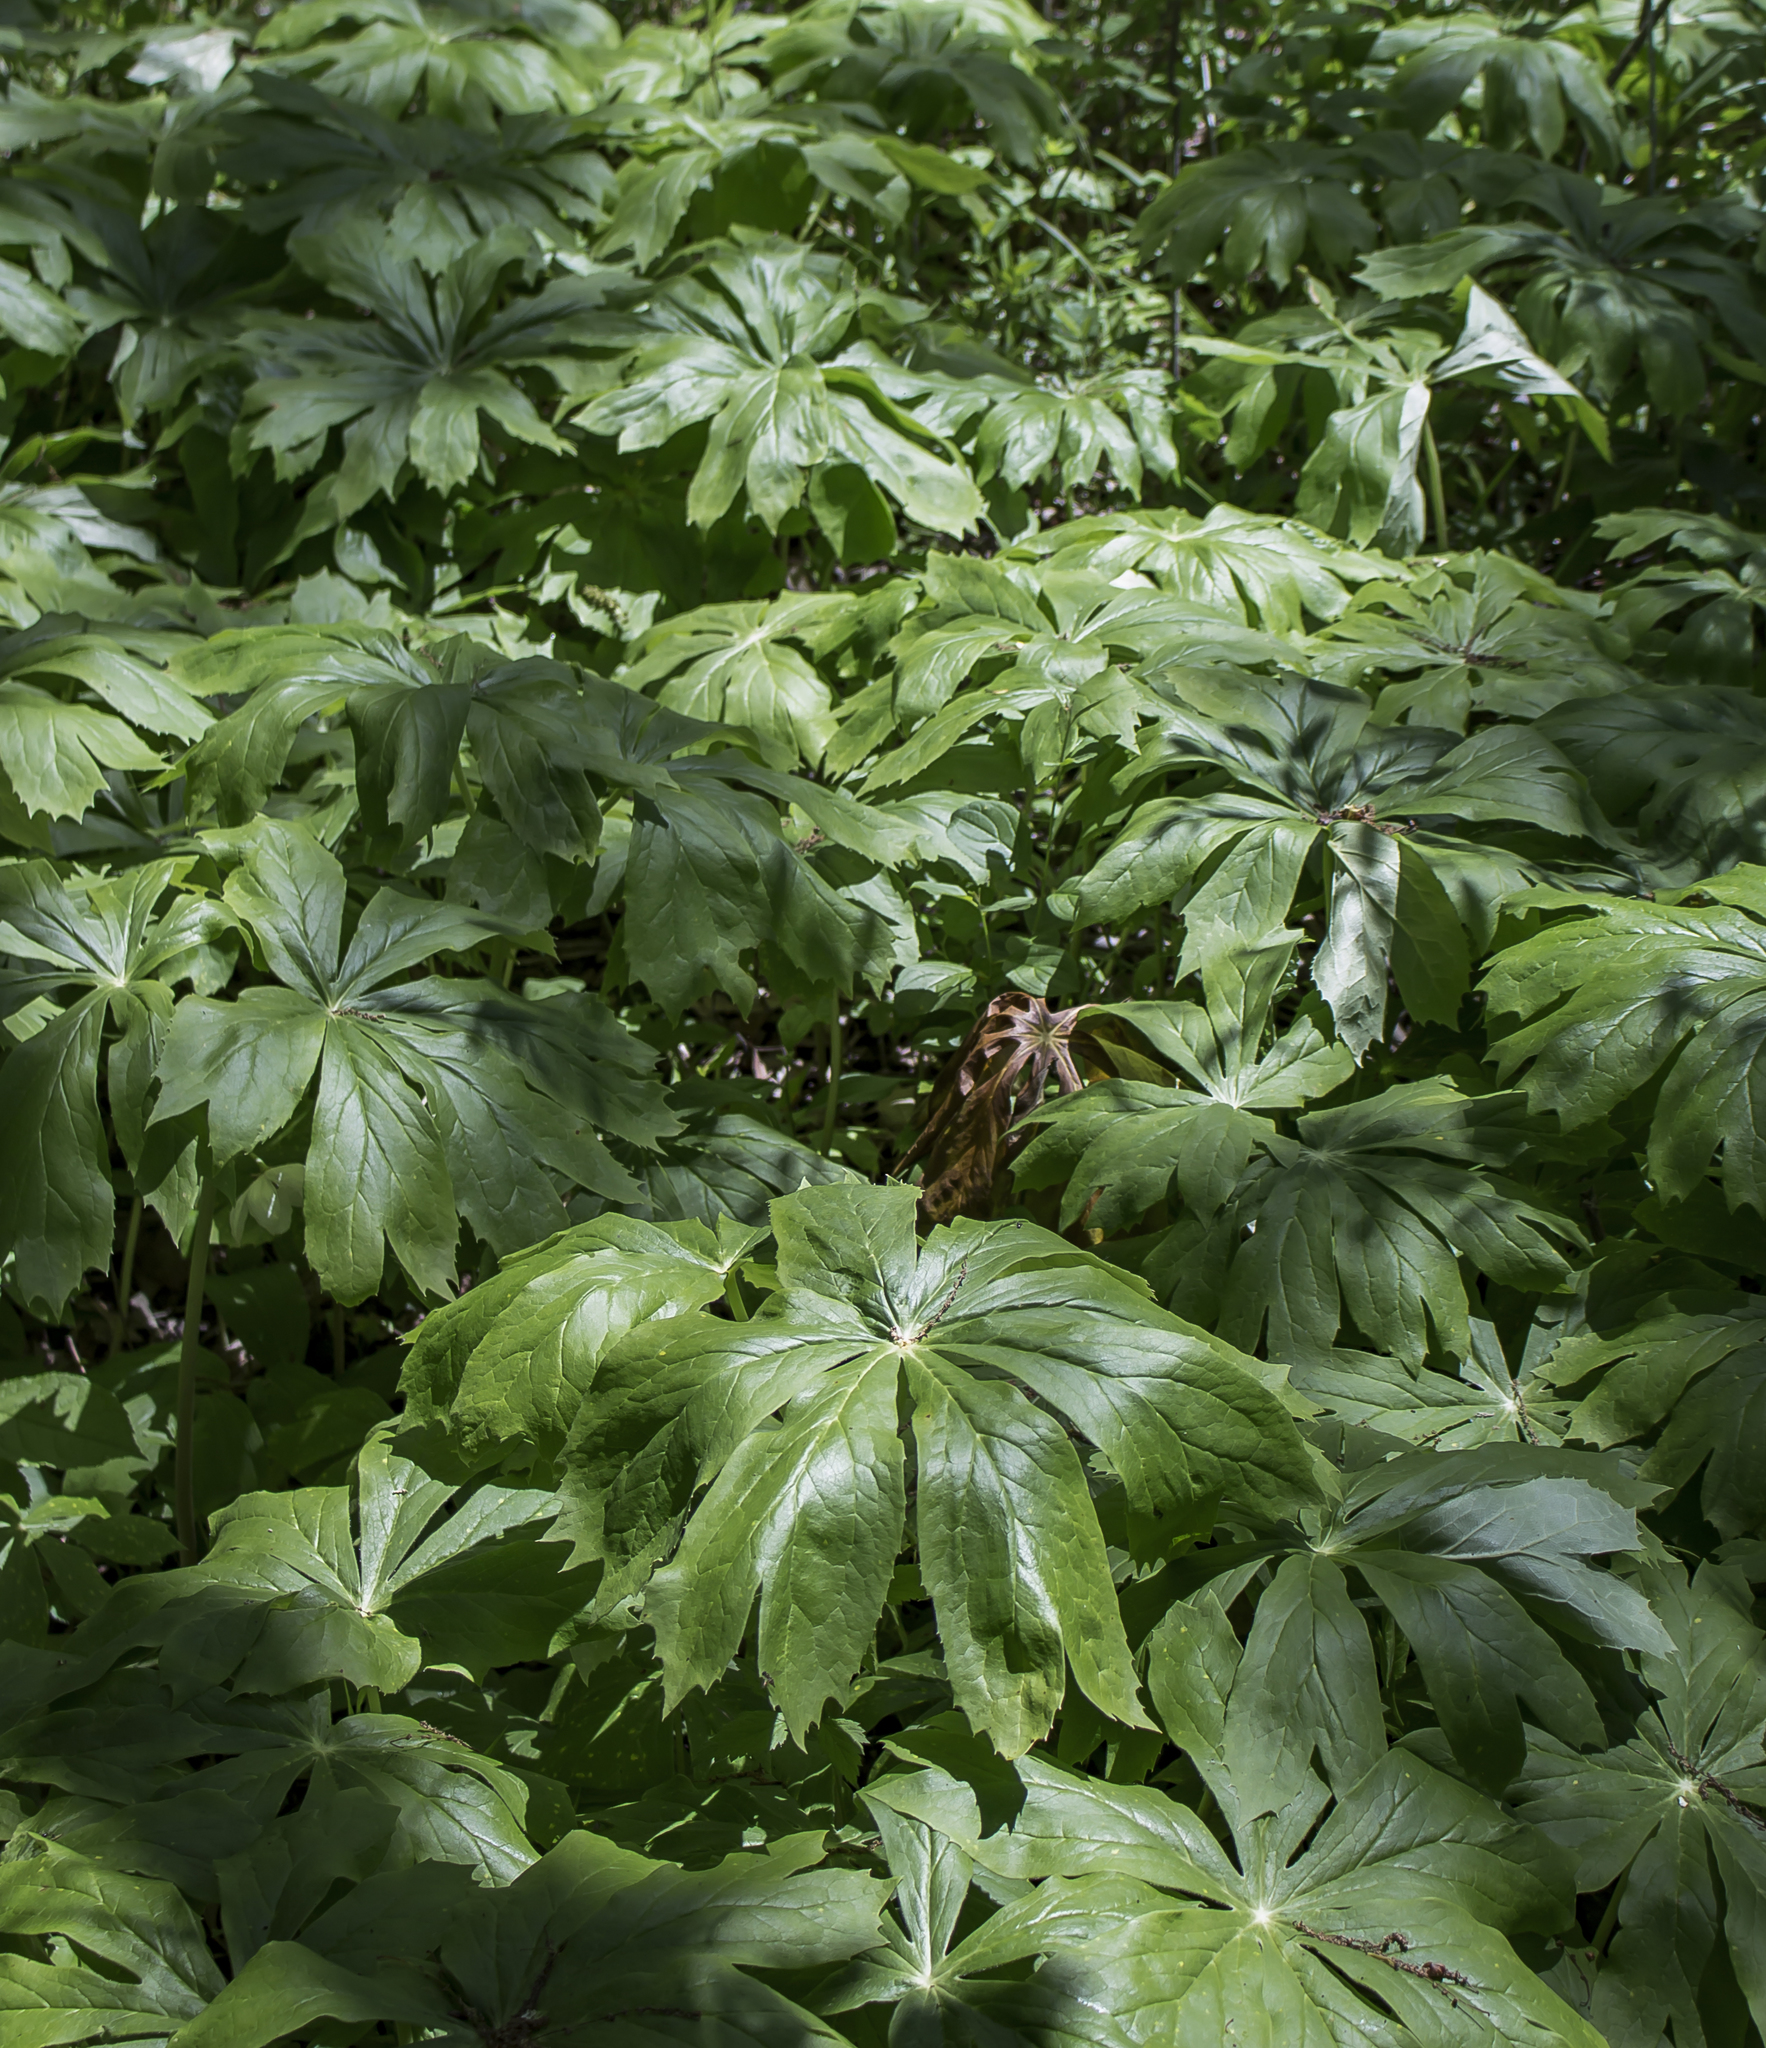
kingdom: Plantae
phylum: Tracheophyta
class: Magnoliopsida
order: Ranunculales
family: Berberidaceae
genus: Podophyllum
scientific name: Podophyllum peltatum
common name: Wild mandrake
